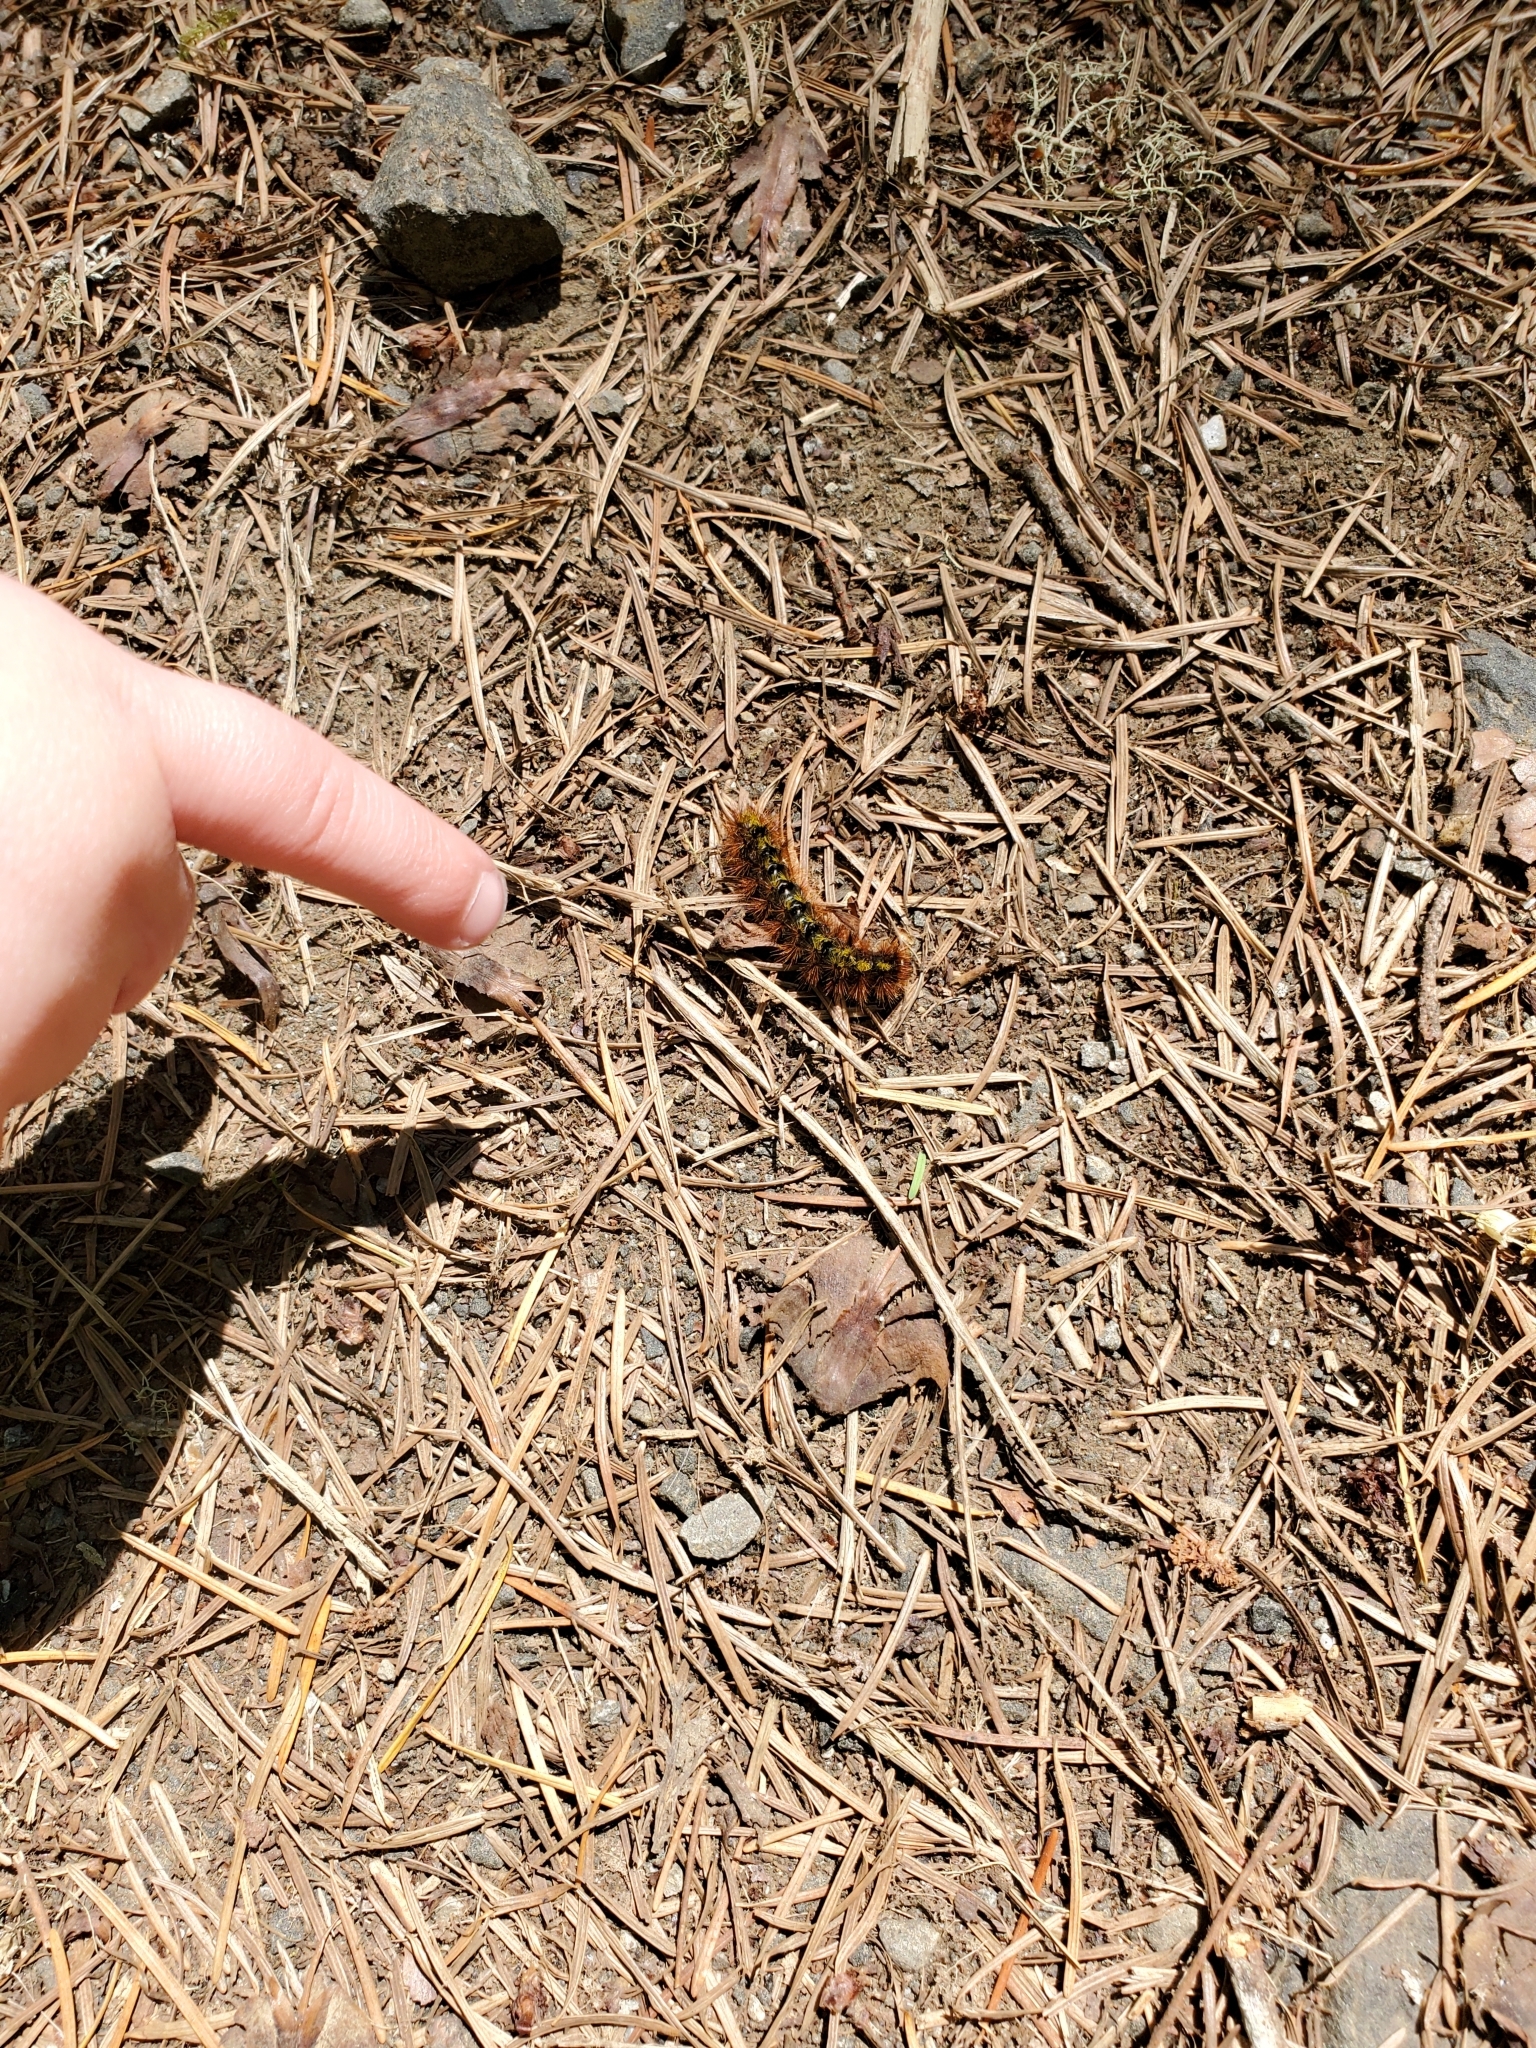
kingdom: Animalia
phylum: Arthropoda
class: Insecta
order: Lepidoptera
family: Erebidae
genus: Lophocampa
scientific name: Lophocampa argentata
